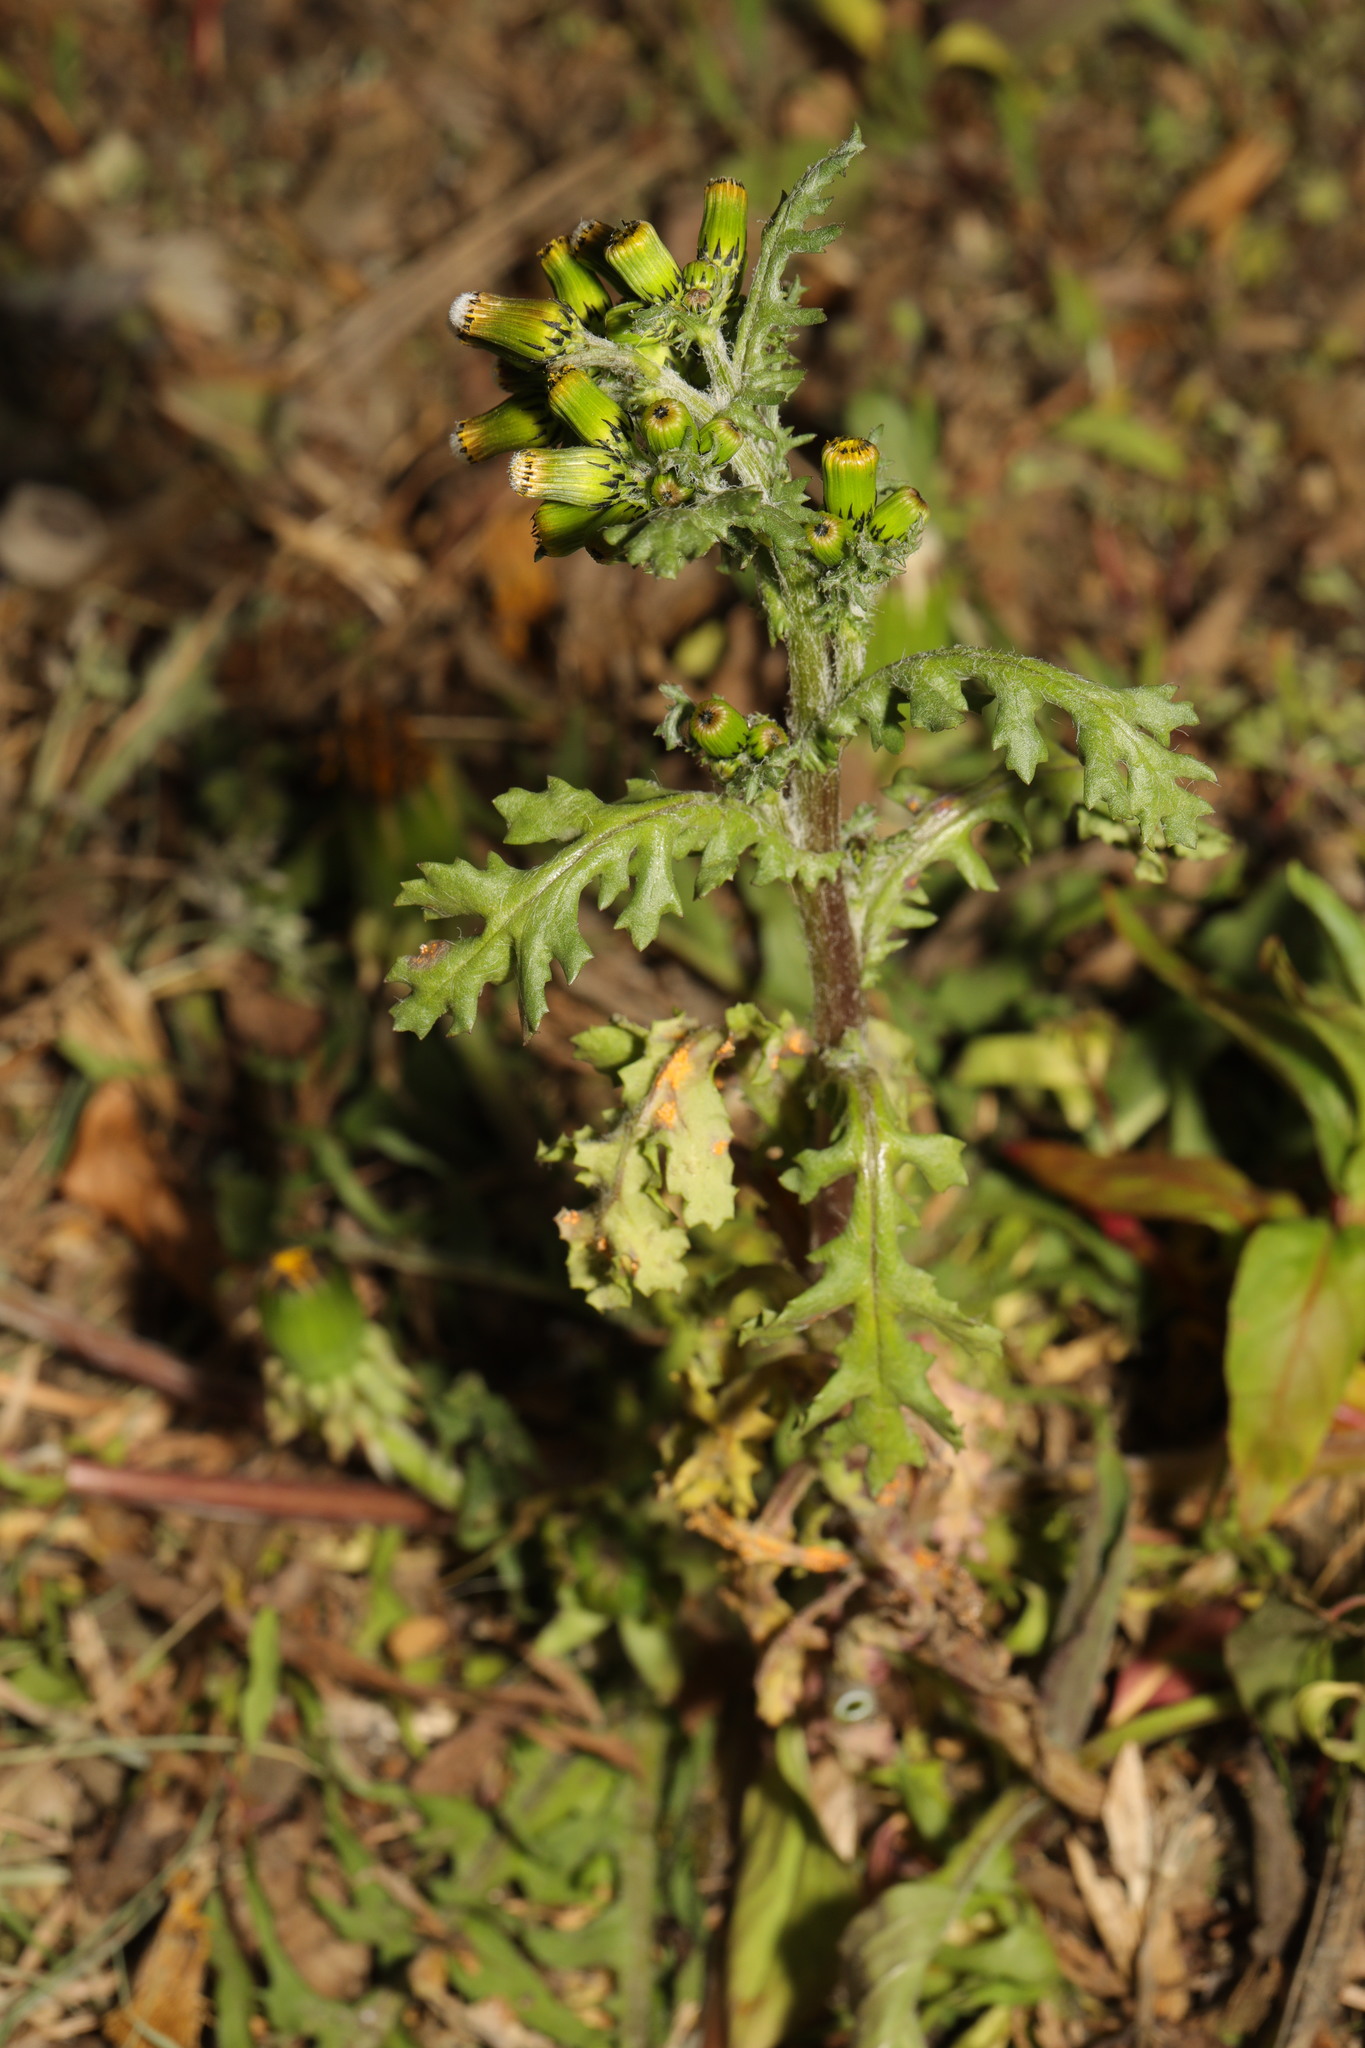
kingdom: Plantae
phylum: Tracheophyta
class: Magnoliopsida
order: Asterales
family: Asteraceae
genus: Senecio
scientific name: Senecio vulgaris
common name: Old-man-in-the-spring
